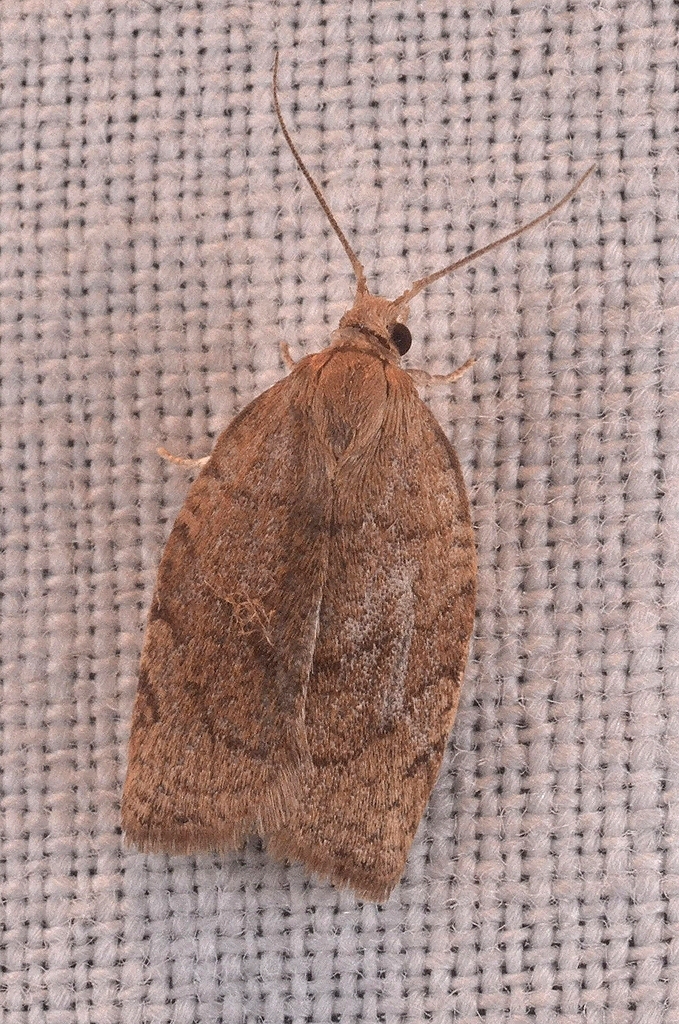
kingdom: Animalia
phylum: Arthropoda
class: Insecta
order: Lepidoptera
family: Tortricidae
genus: Pandemis
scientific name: Pandemis cerasana
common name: Barred fruit-tree tortrix
